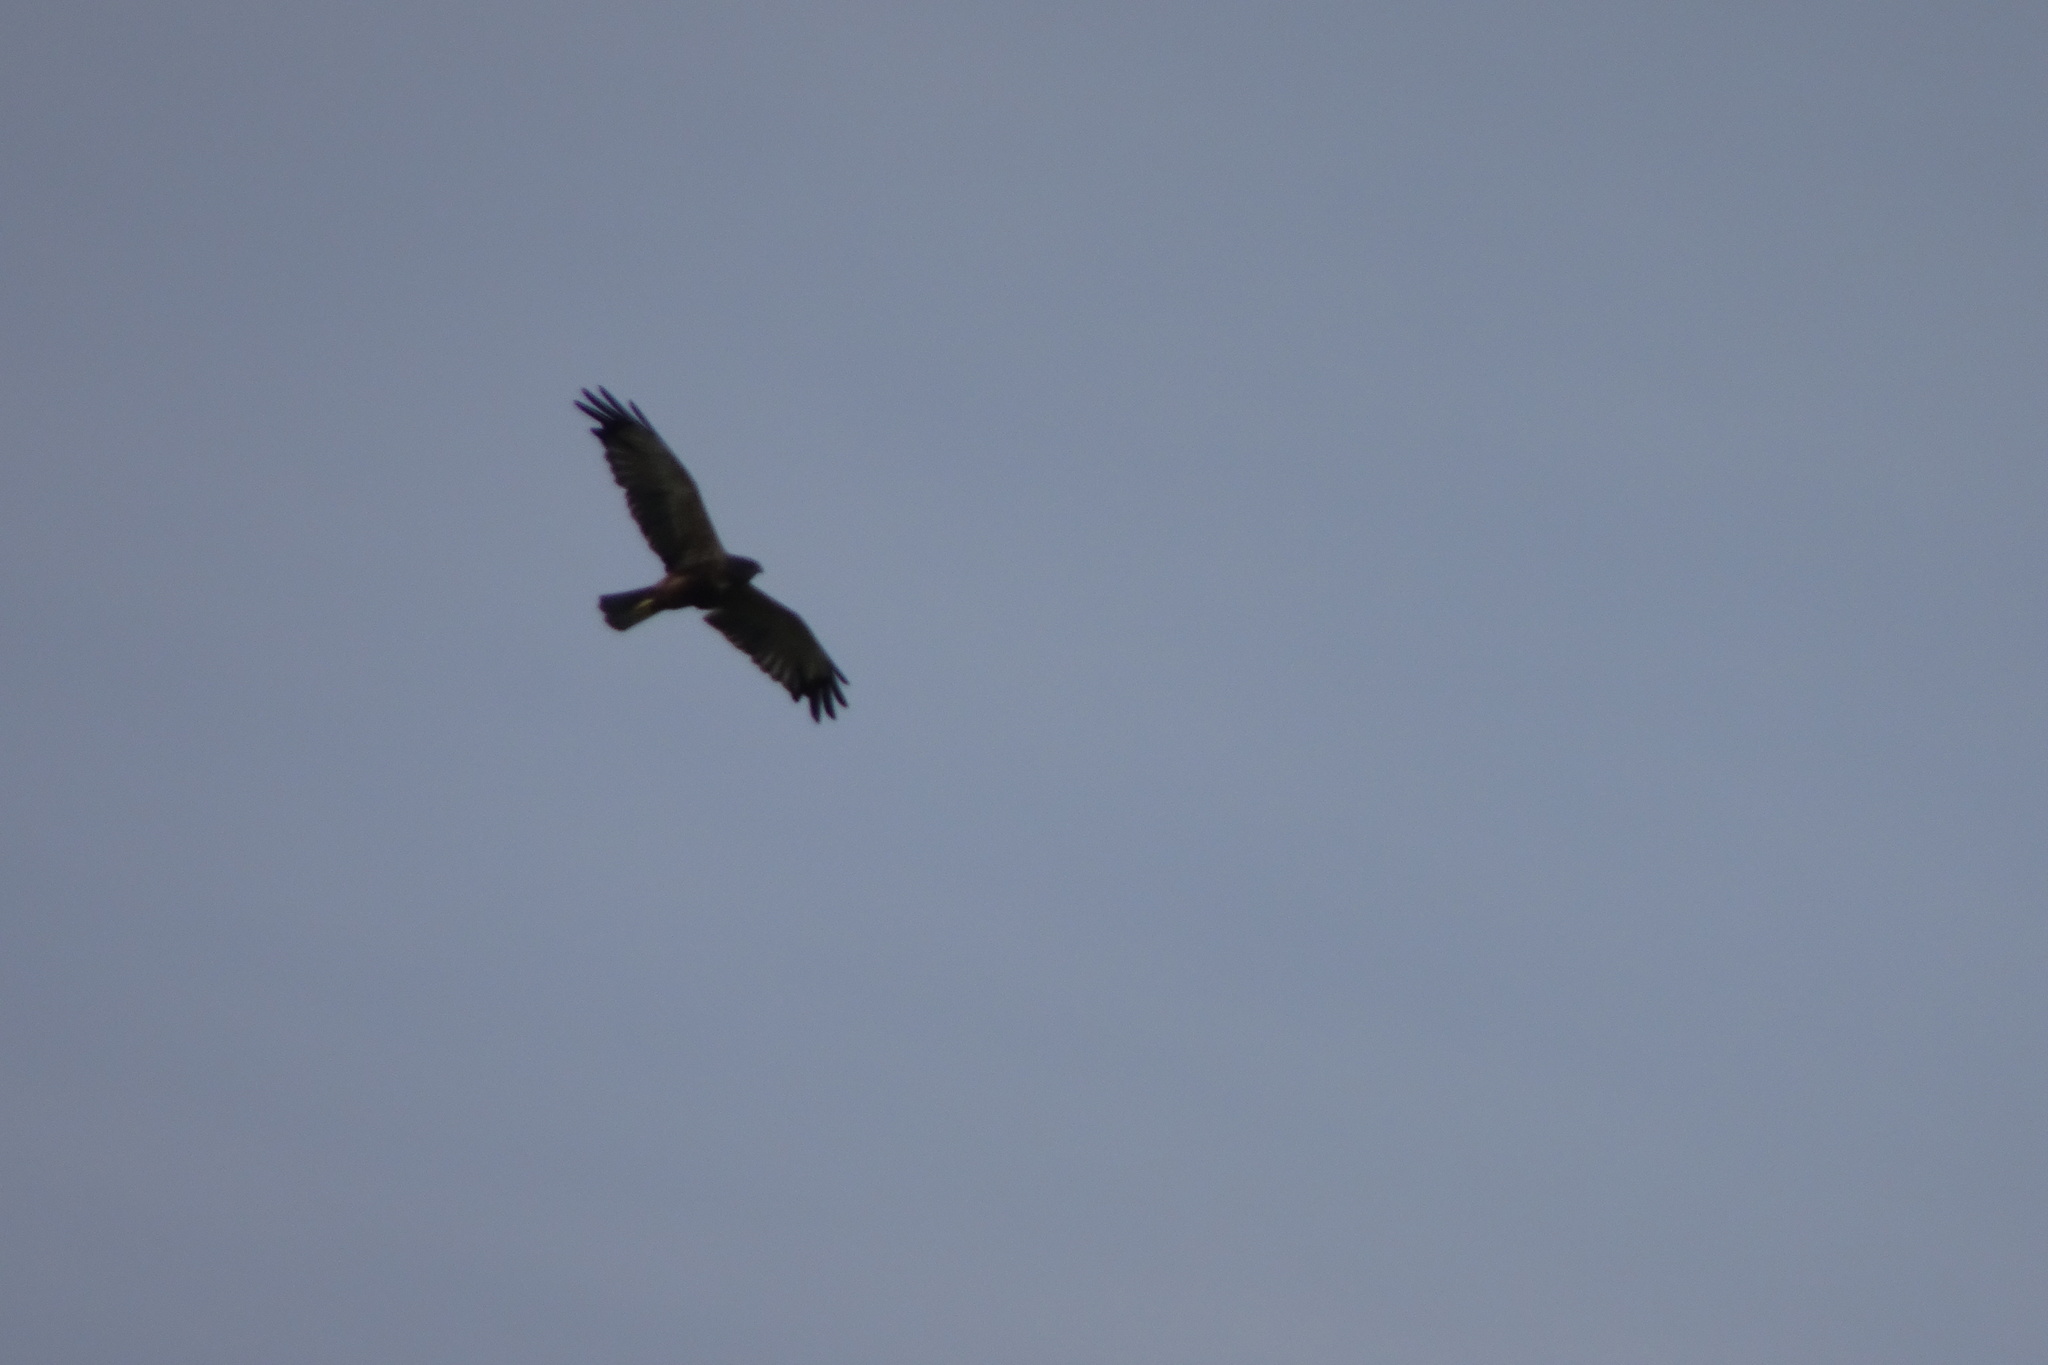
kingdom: Animalia
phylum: Chordata
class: Aves
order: Accipitriformes
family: Accipitridae
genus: Circus
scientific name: Circus aeruginosus
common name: Western marsh harrier
